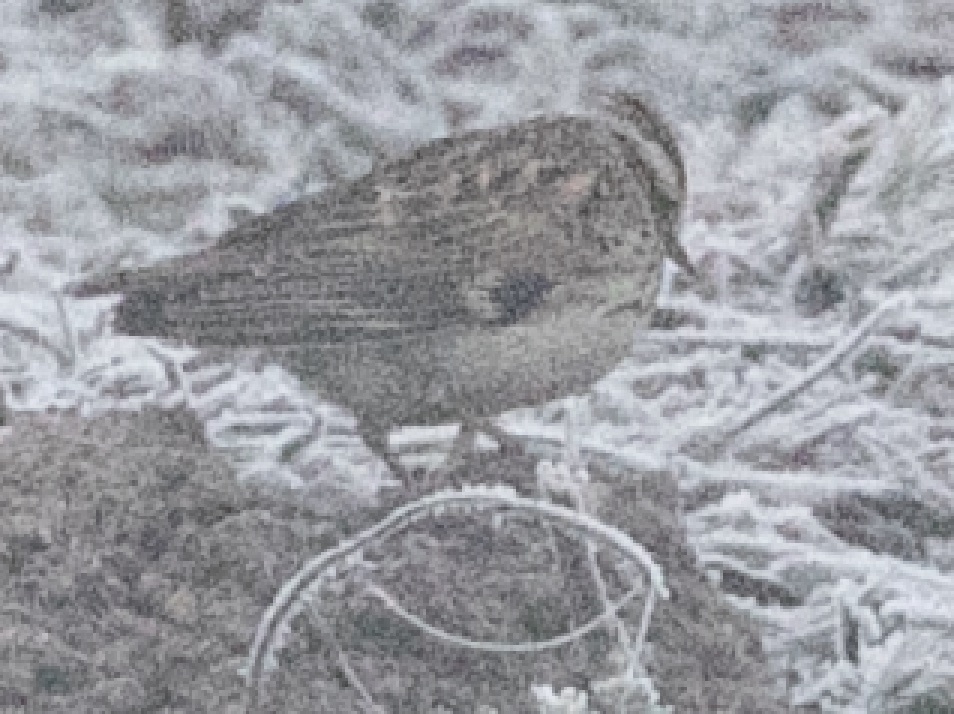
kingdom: Animalia
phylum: Chordata
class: Aves
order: Passeriformes
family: Alaudidae
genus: Lullula
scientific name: Lullula arborea
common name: Woodlark
